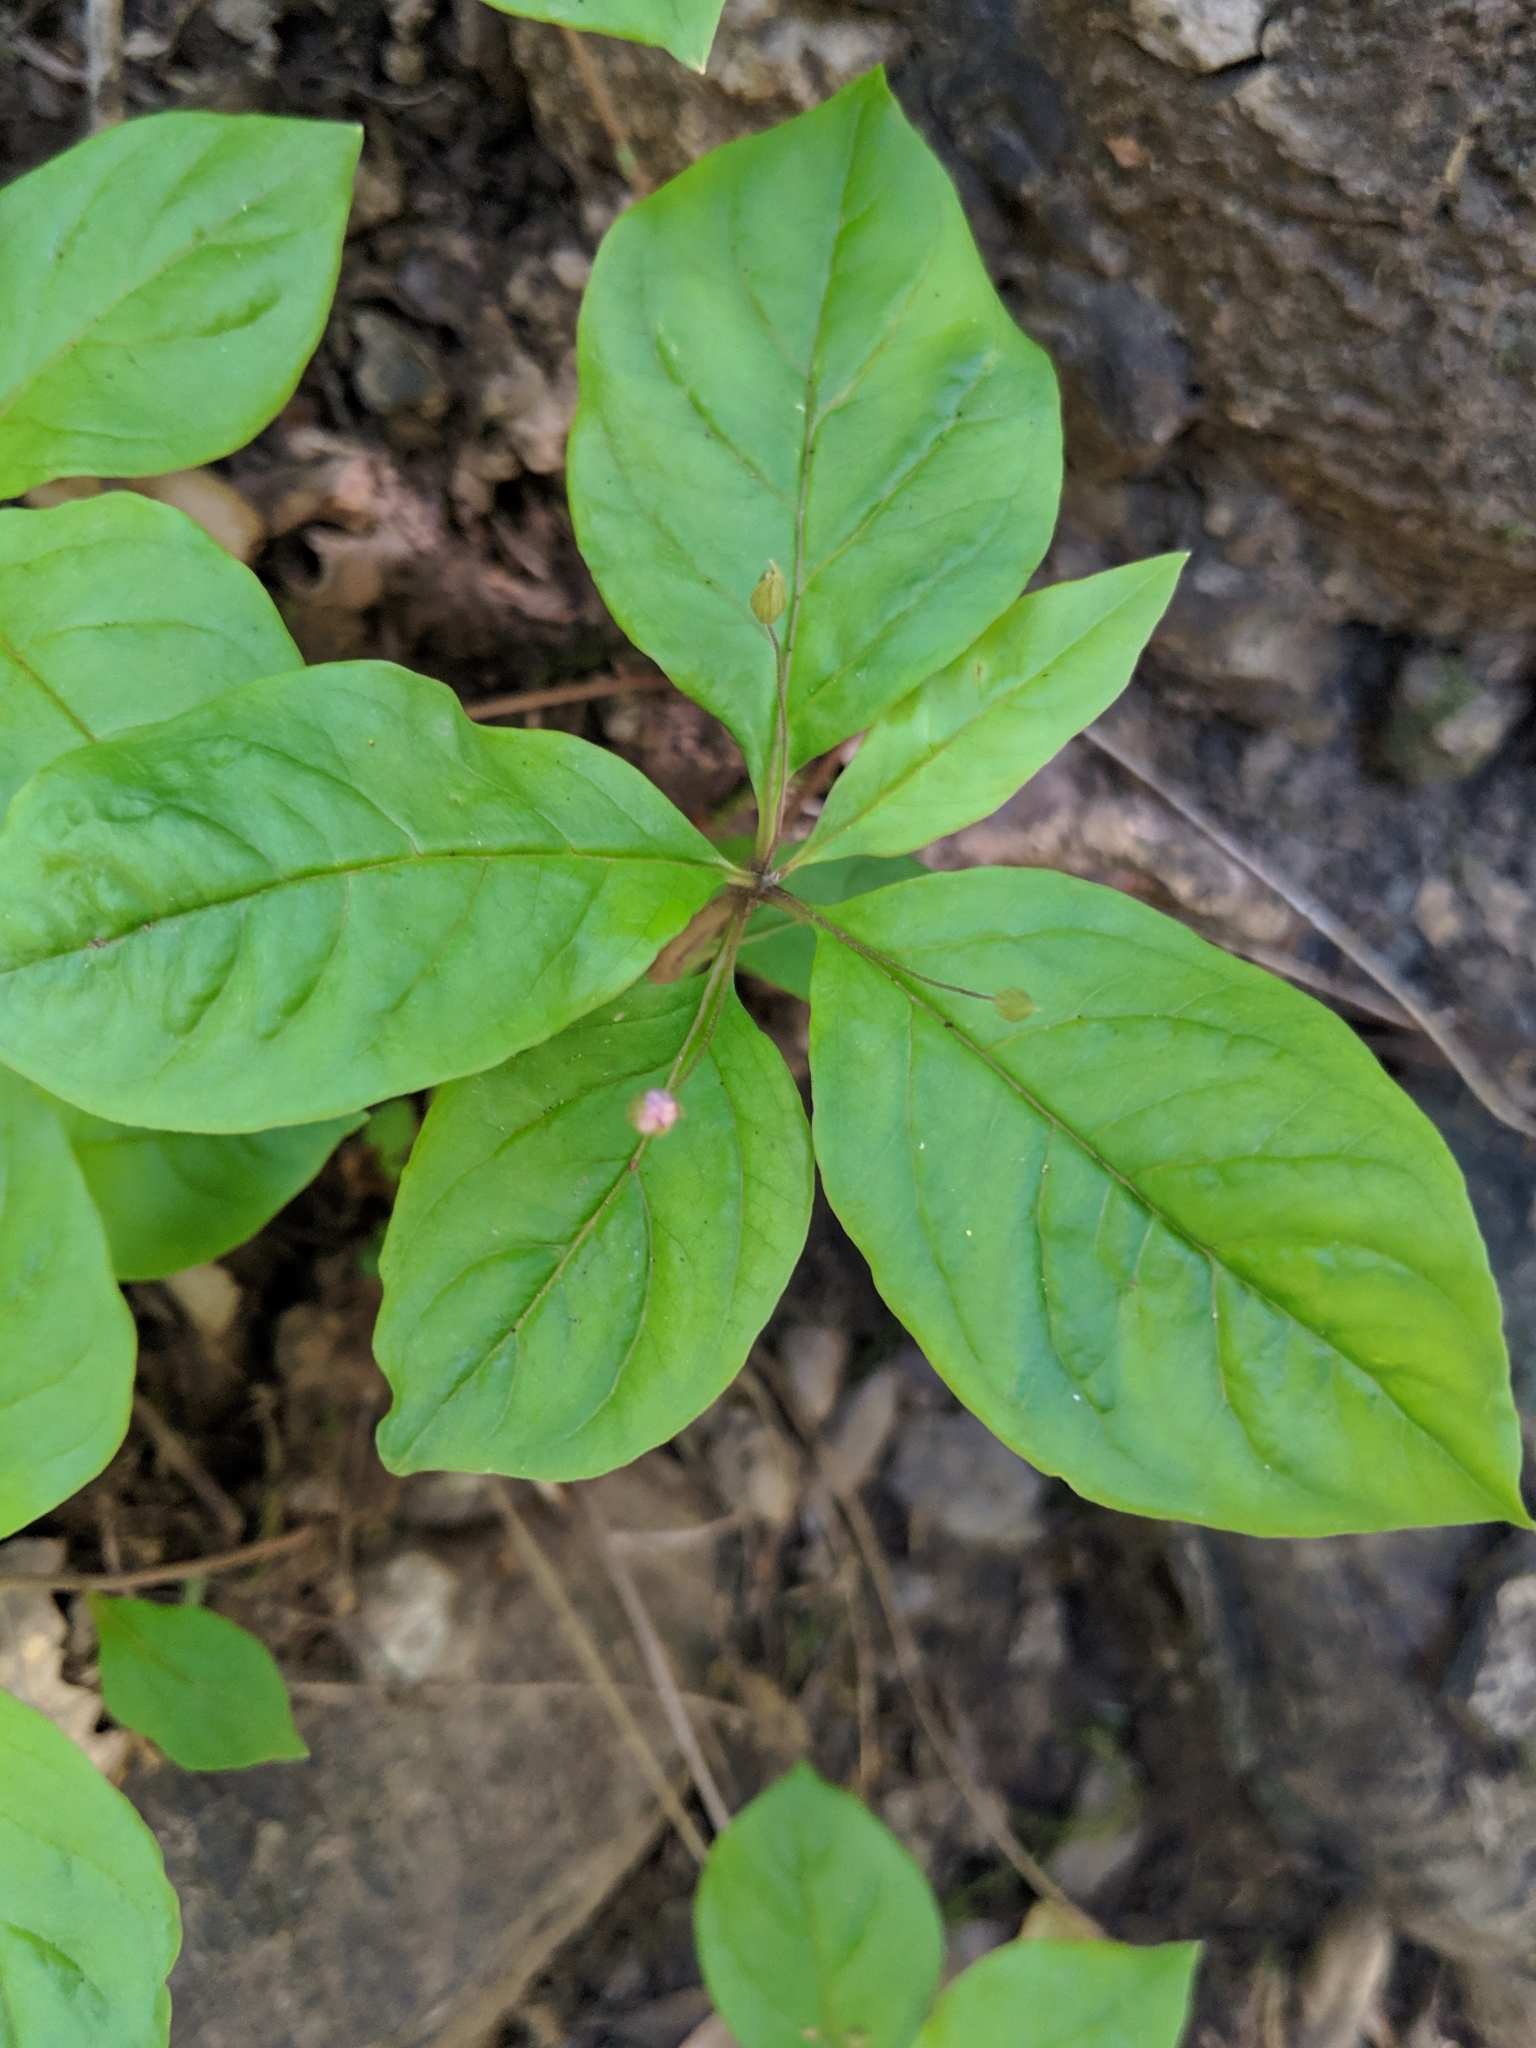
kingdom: Plantae
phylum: Tracheophyta
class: Magnoliopsida
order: Ericales
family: Primulaceae
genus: Lysimachia
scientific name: Lysimachia latifolia
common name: Pacific starflower
